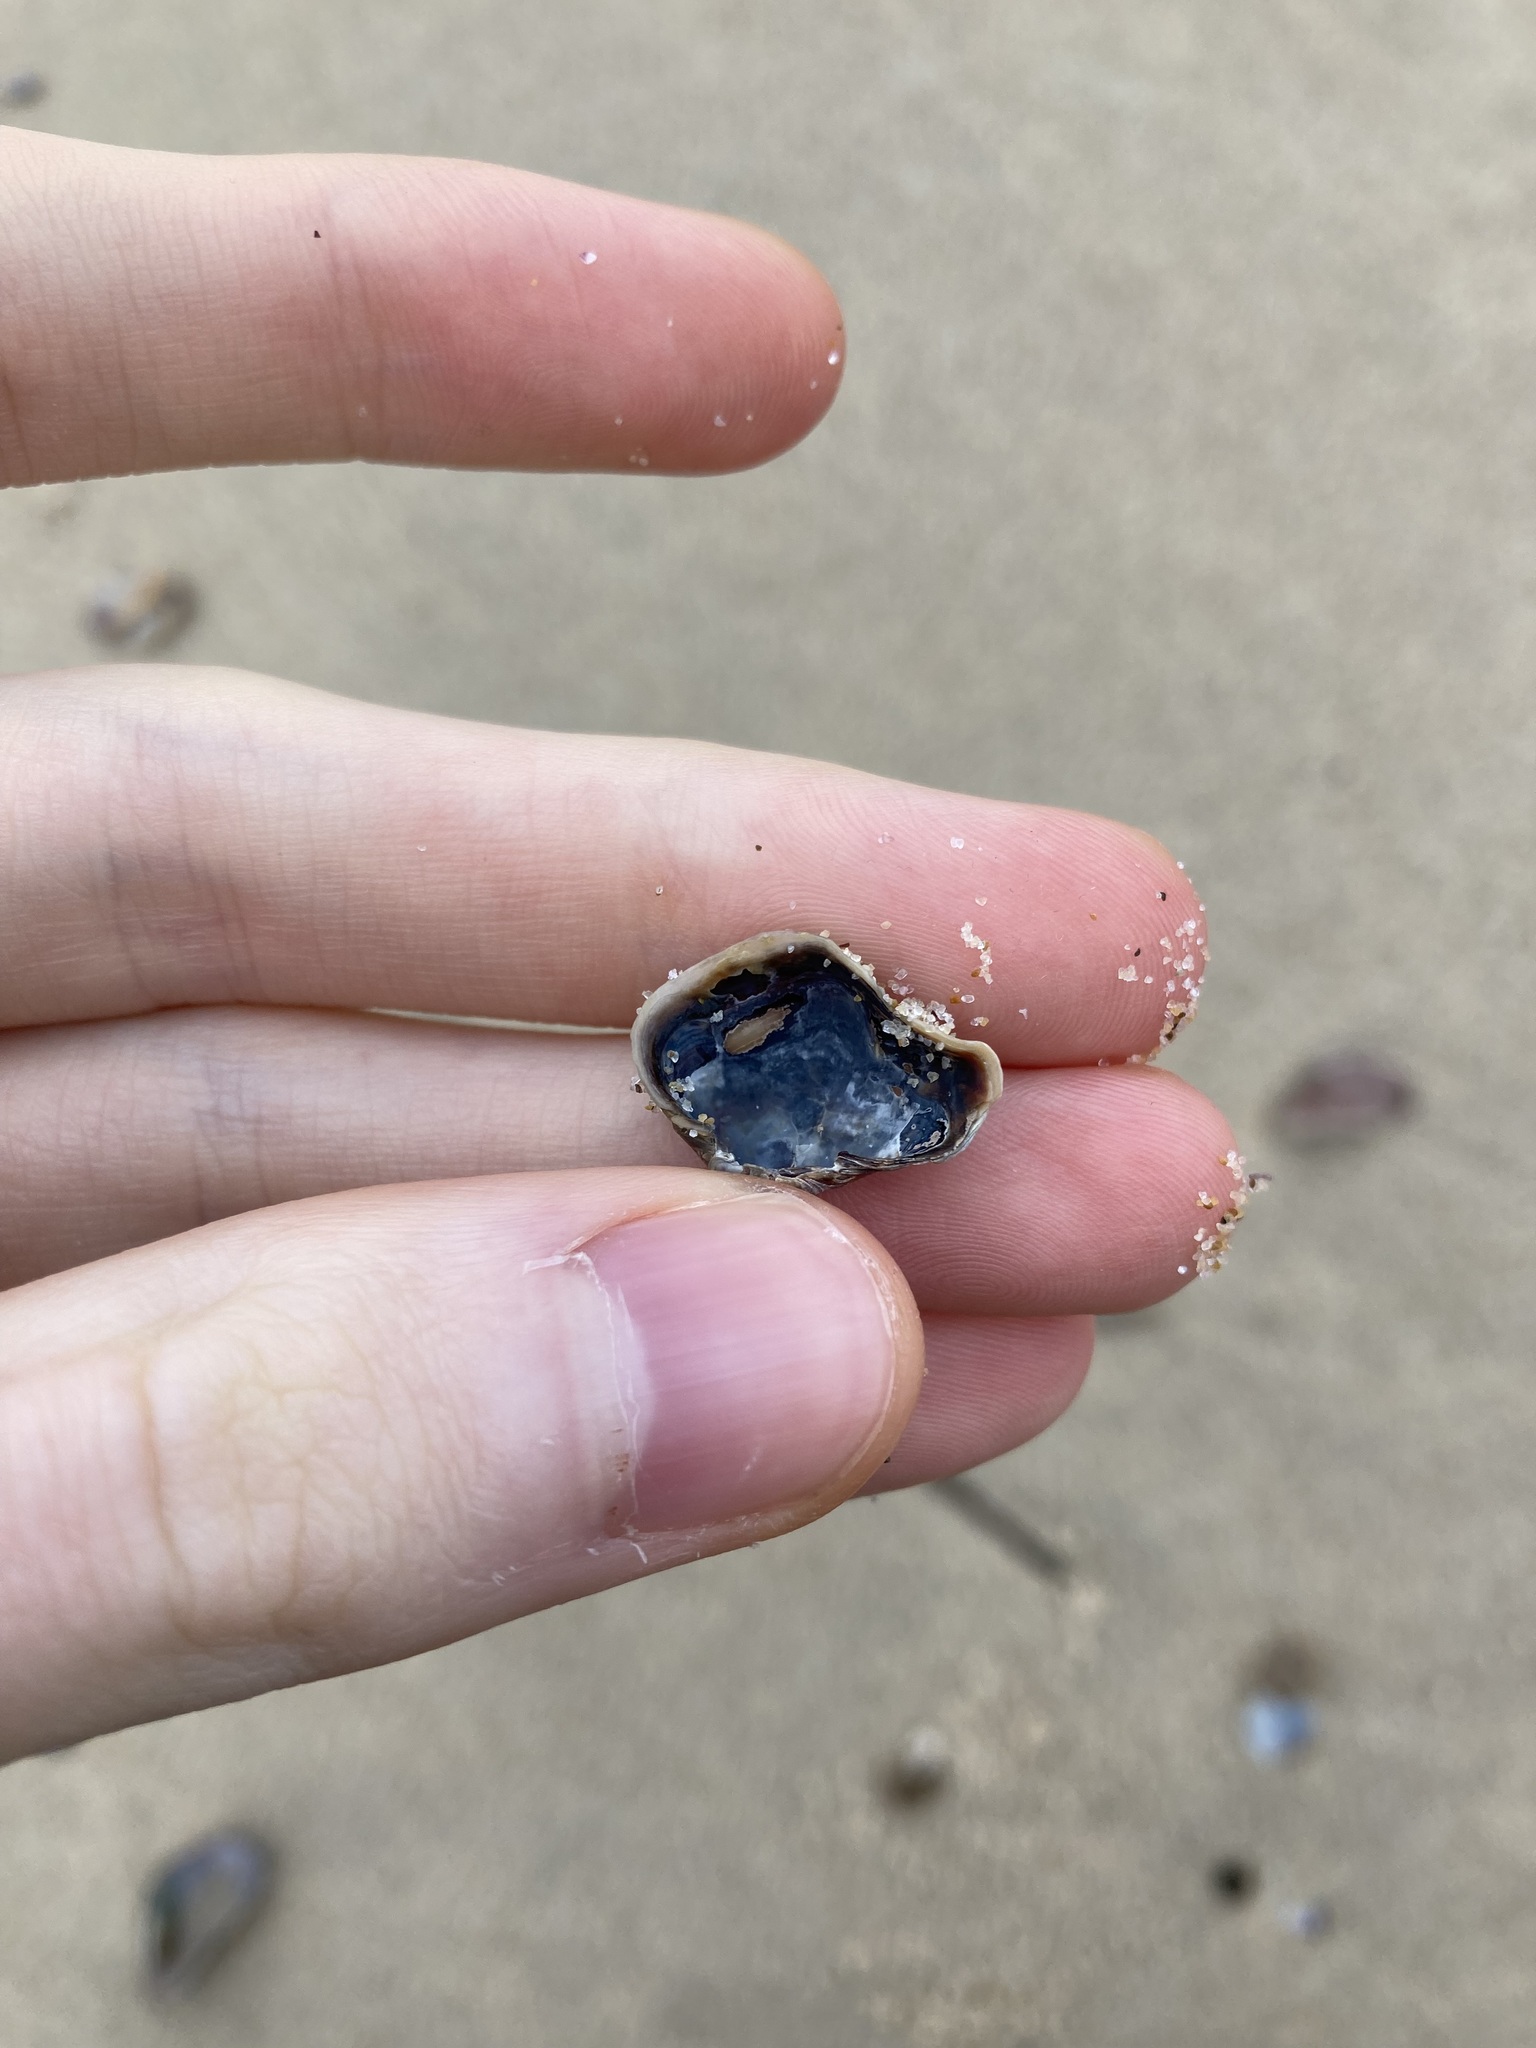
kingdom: Animalia
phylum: Mollusca
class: Bivalvia
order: Venerida
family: Veneridae
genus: Irus
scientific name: Irus cumingii
